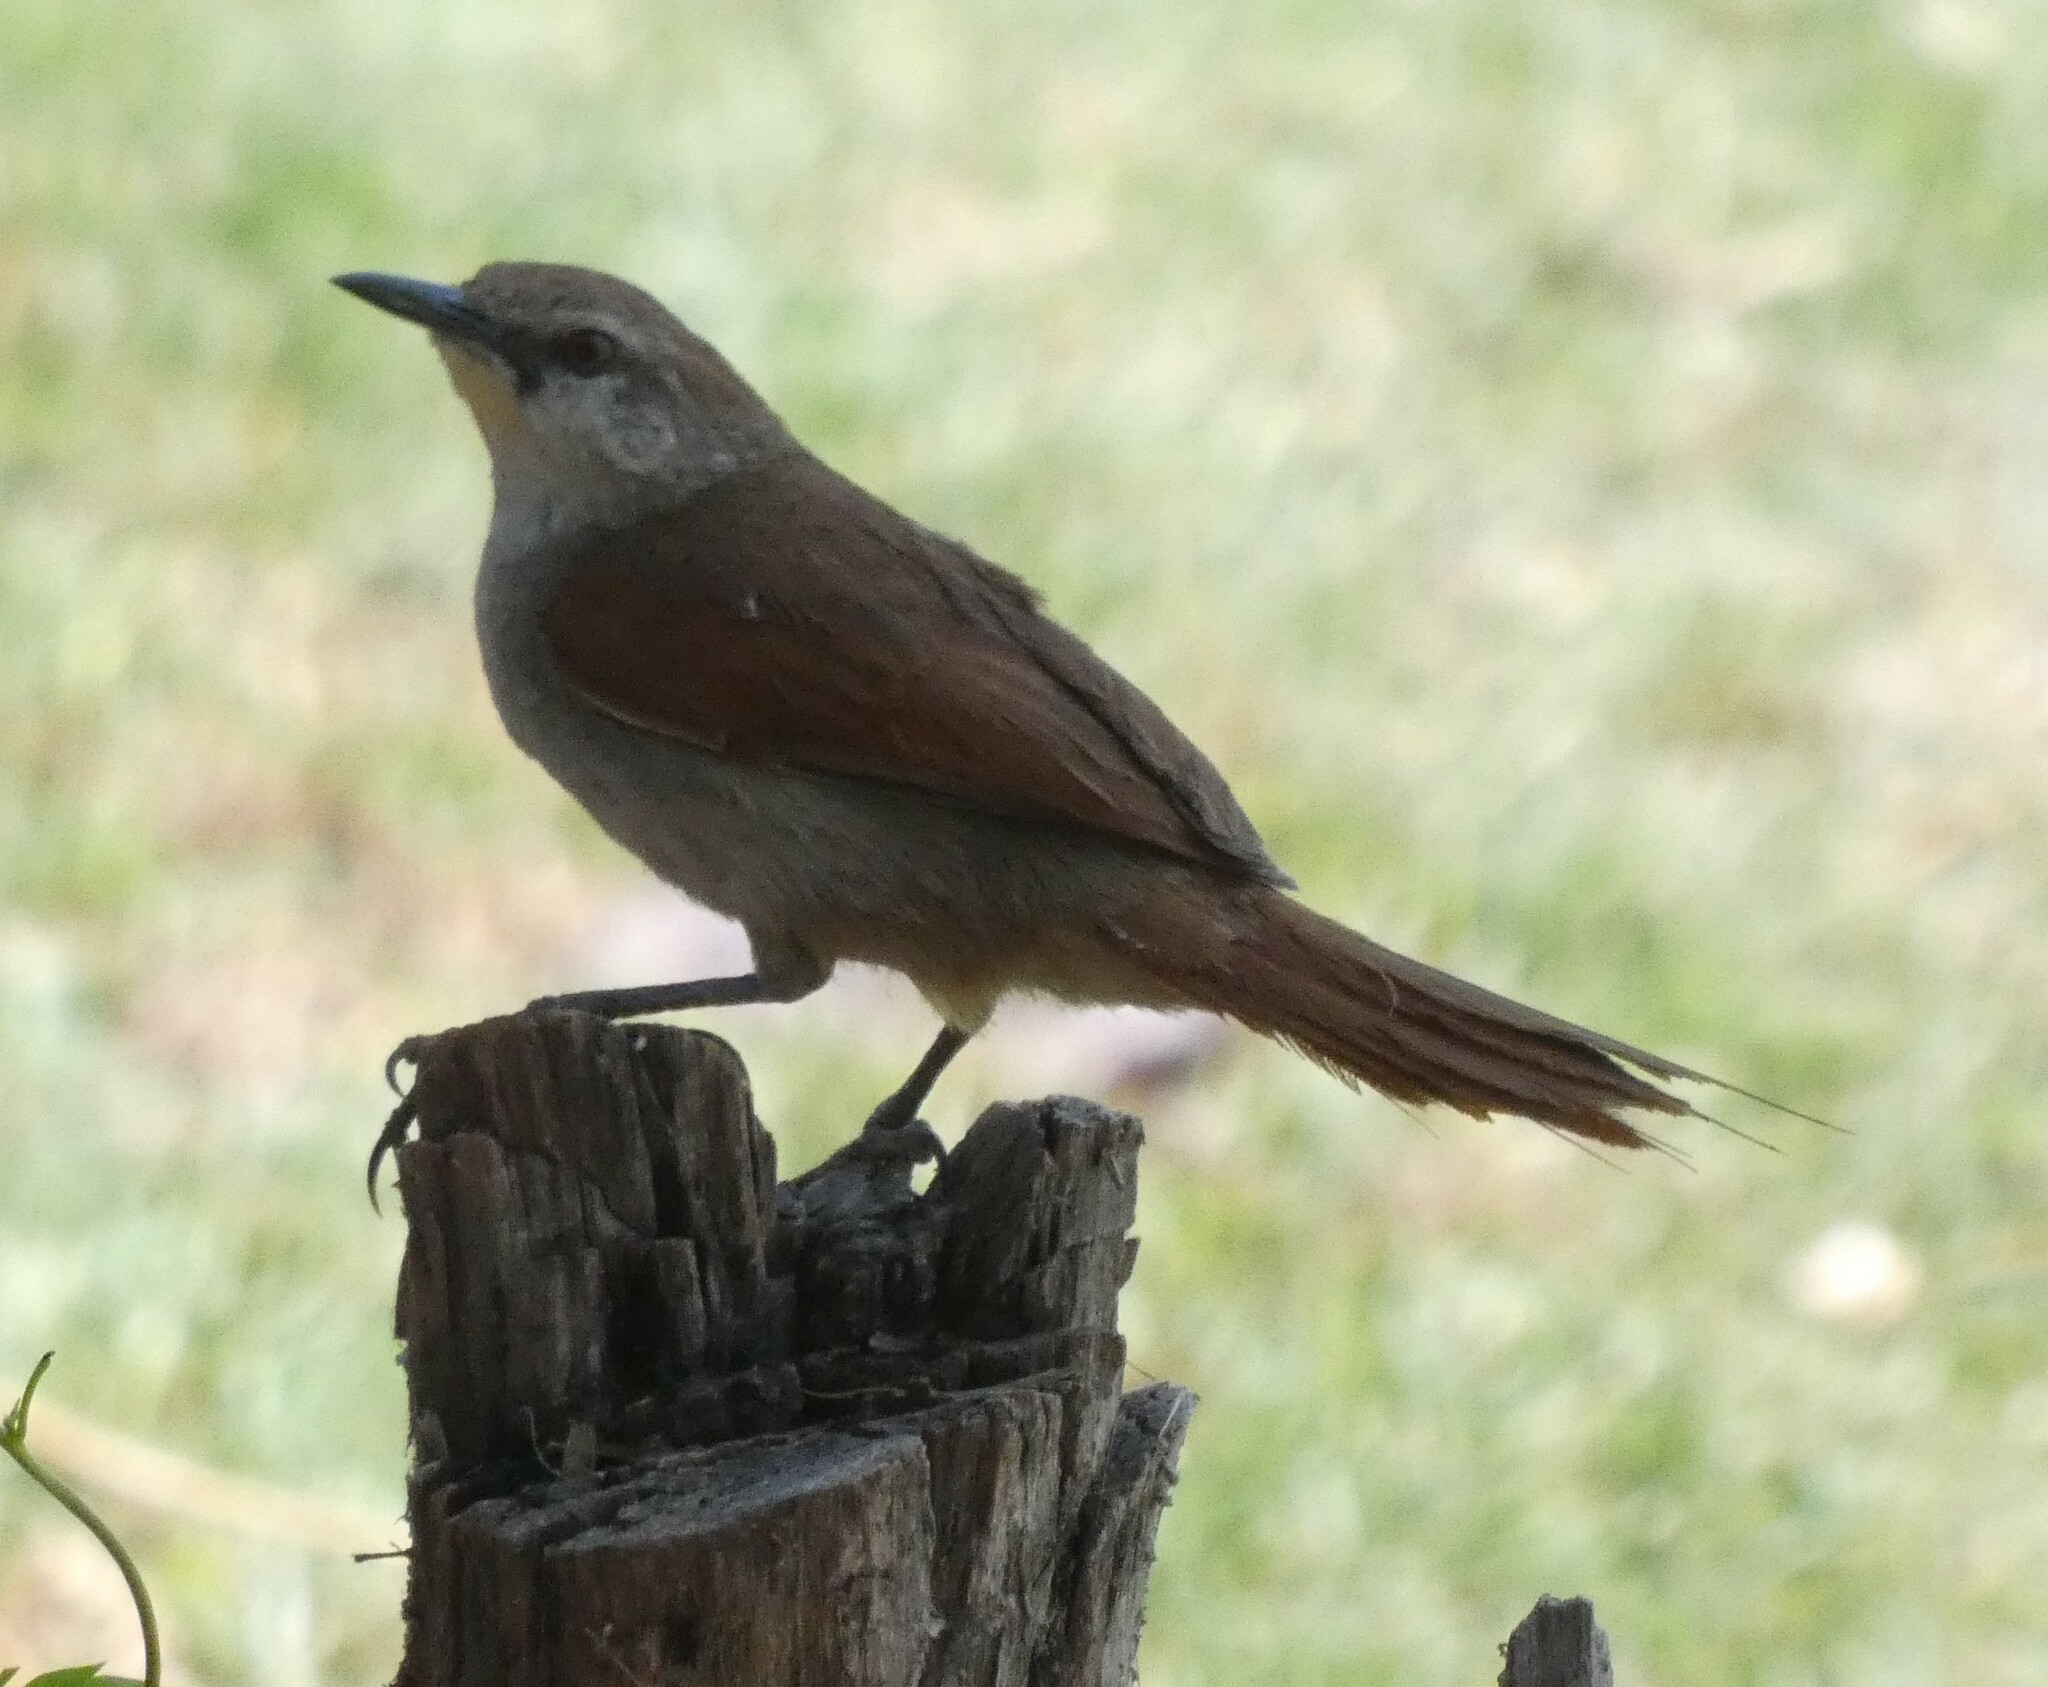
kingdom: Animalia
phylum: Chordata
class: Aves
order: Passeriformes
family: Furnariidae
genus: Certhiaxis
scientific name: Certhiaxis cinnamomeus
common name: Yellow-chinned spinetail
